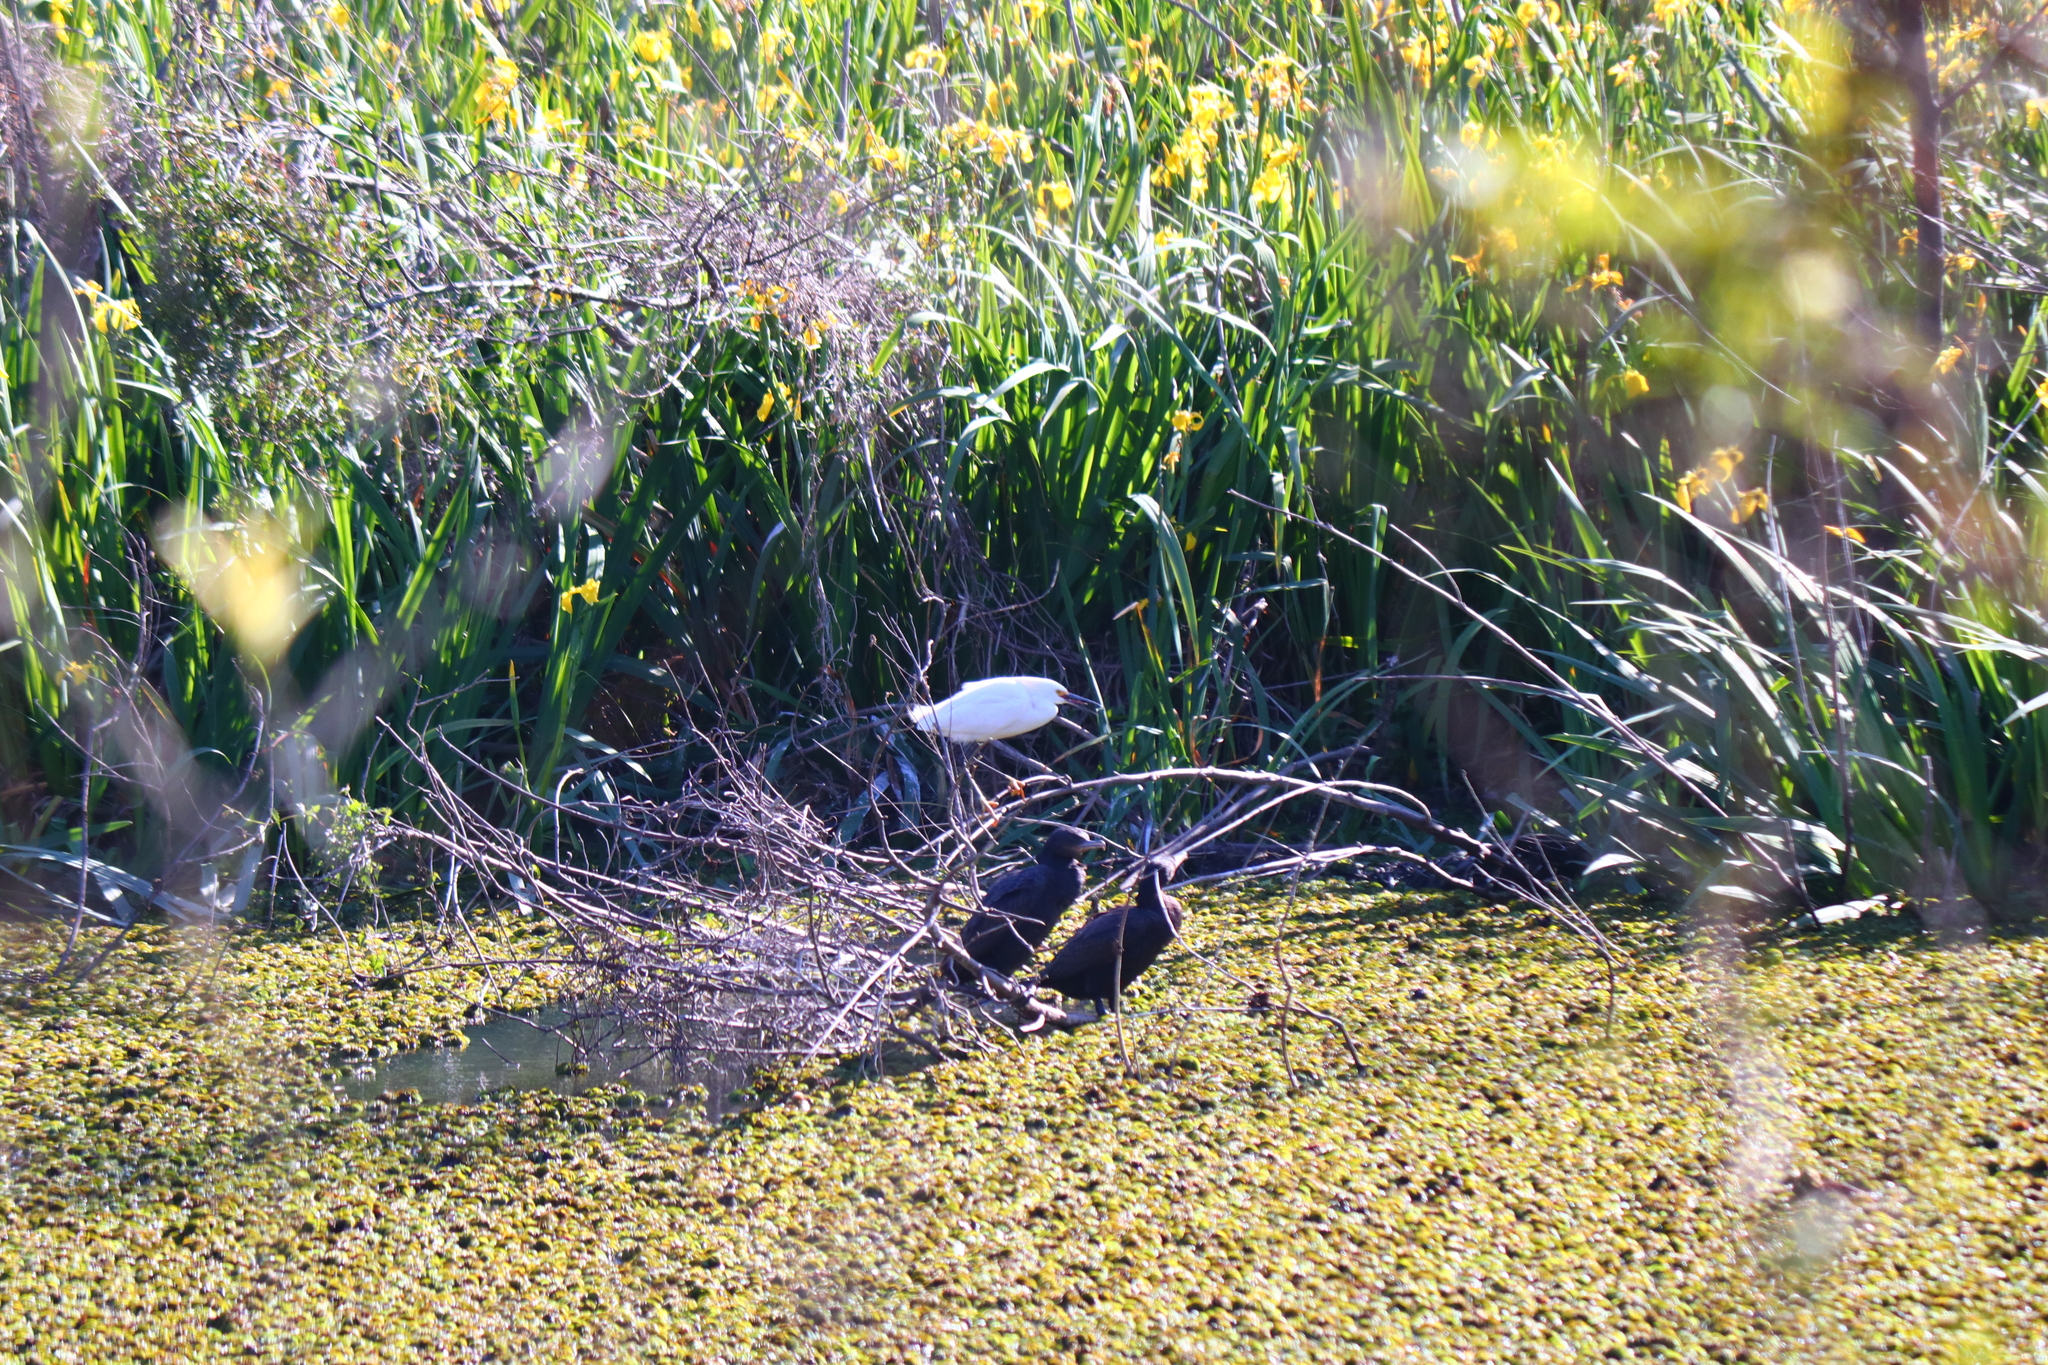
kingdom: Animalia
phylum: Chordata
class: Aves
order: Pelecaniformes
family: Ardeidae
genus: Egretta
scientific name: Egretta thula
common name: Snowy egret
